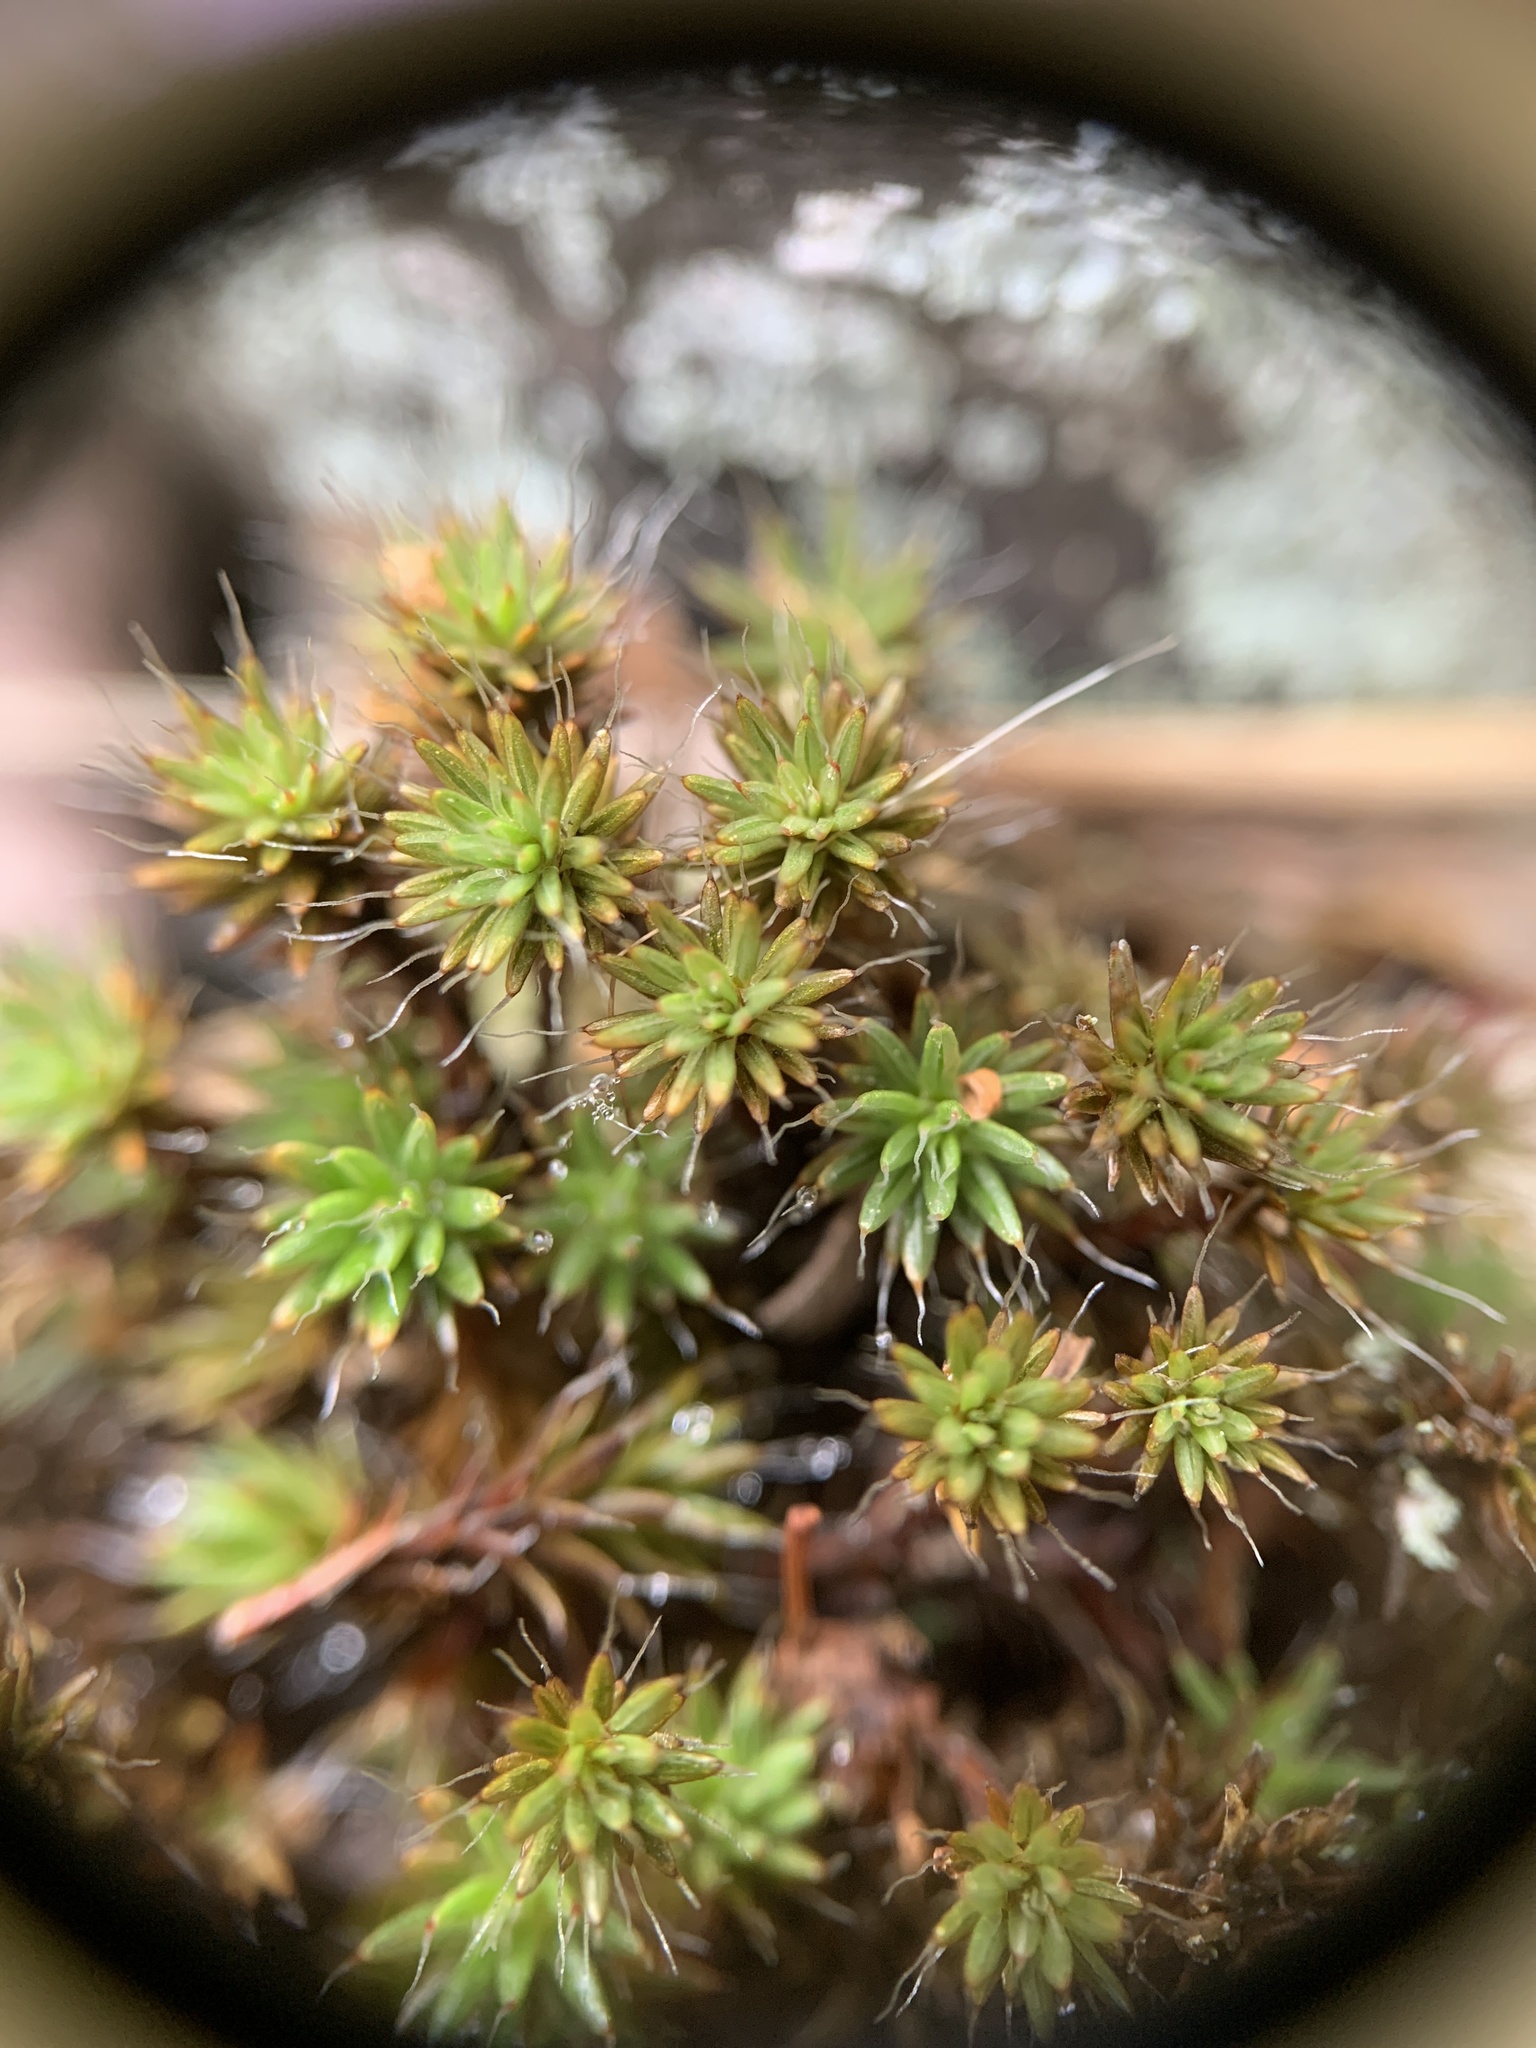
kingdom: Plantae
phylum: Bryophyta
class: Polytrichopsida
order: Polytrichales
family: Polytrichaceae
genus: Polytrichum
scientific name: Polytrichum piliferum
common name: Bristly haircap
